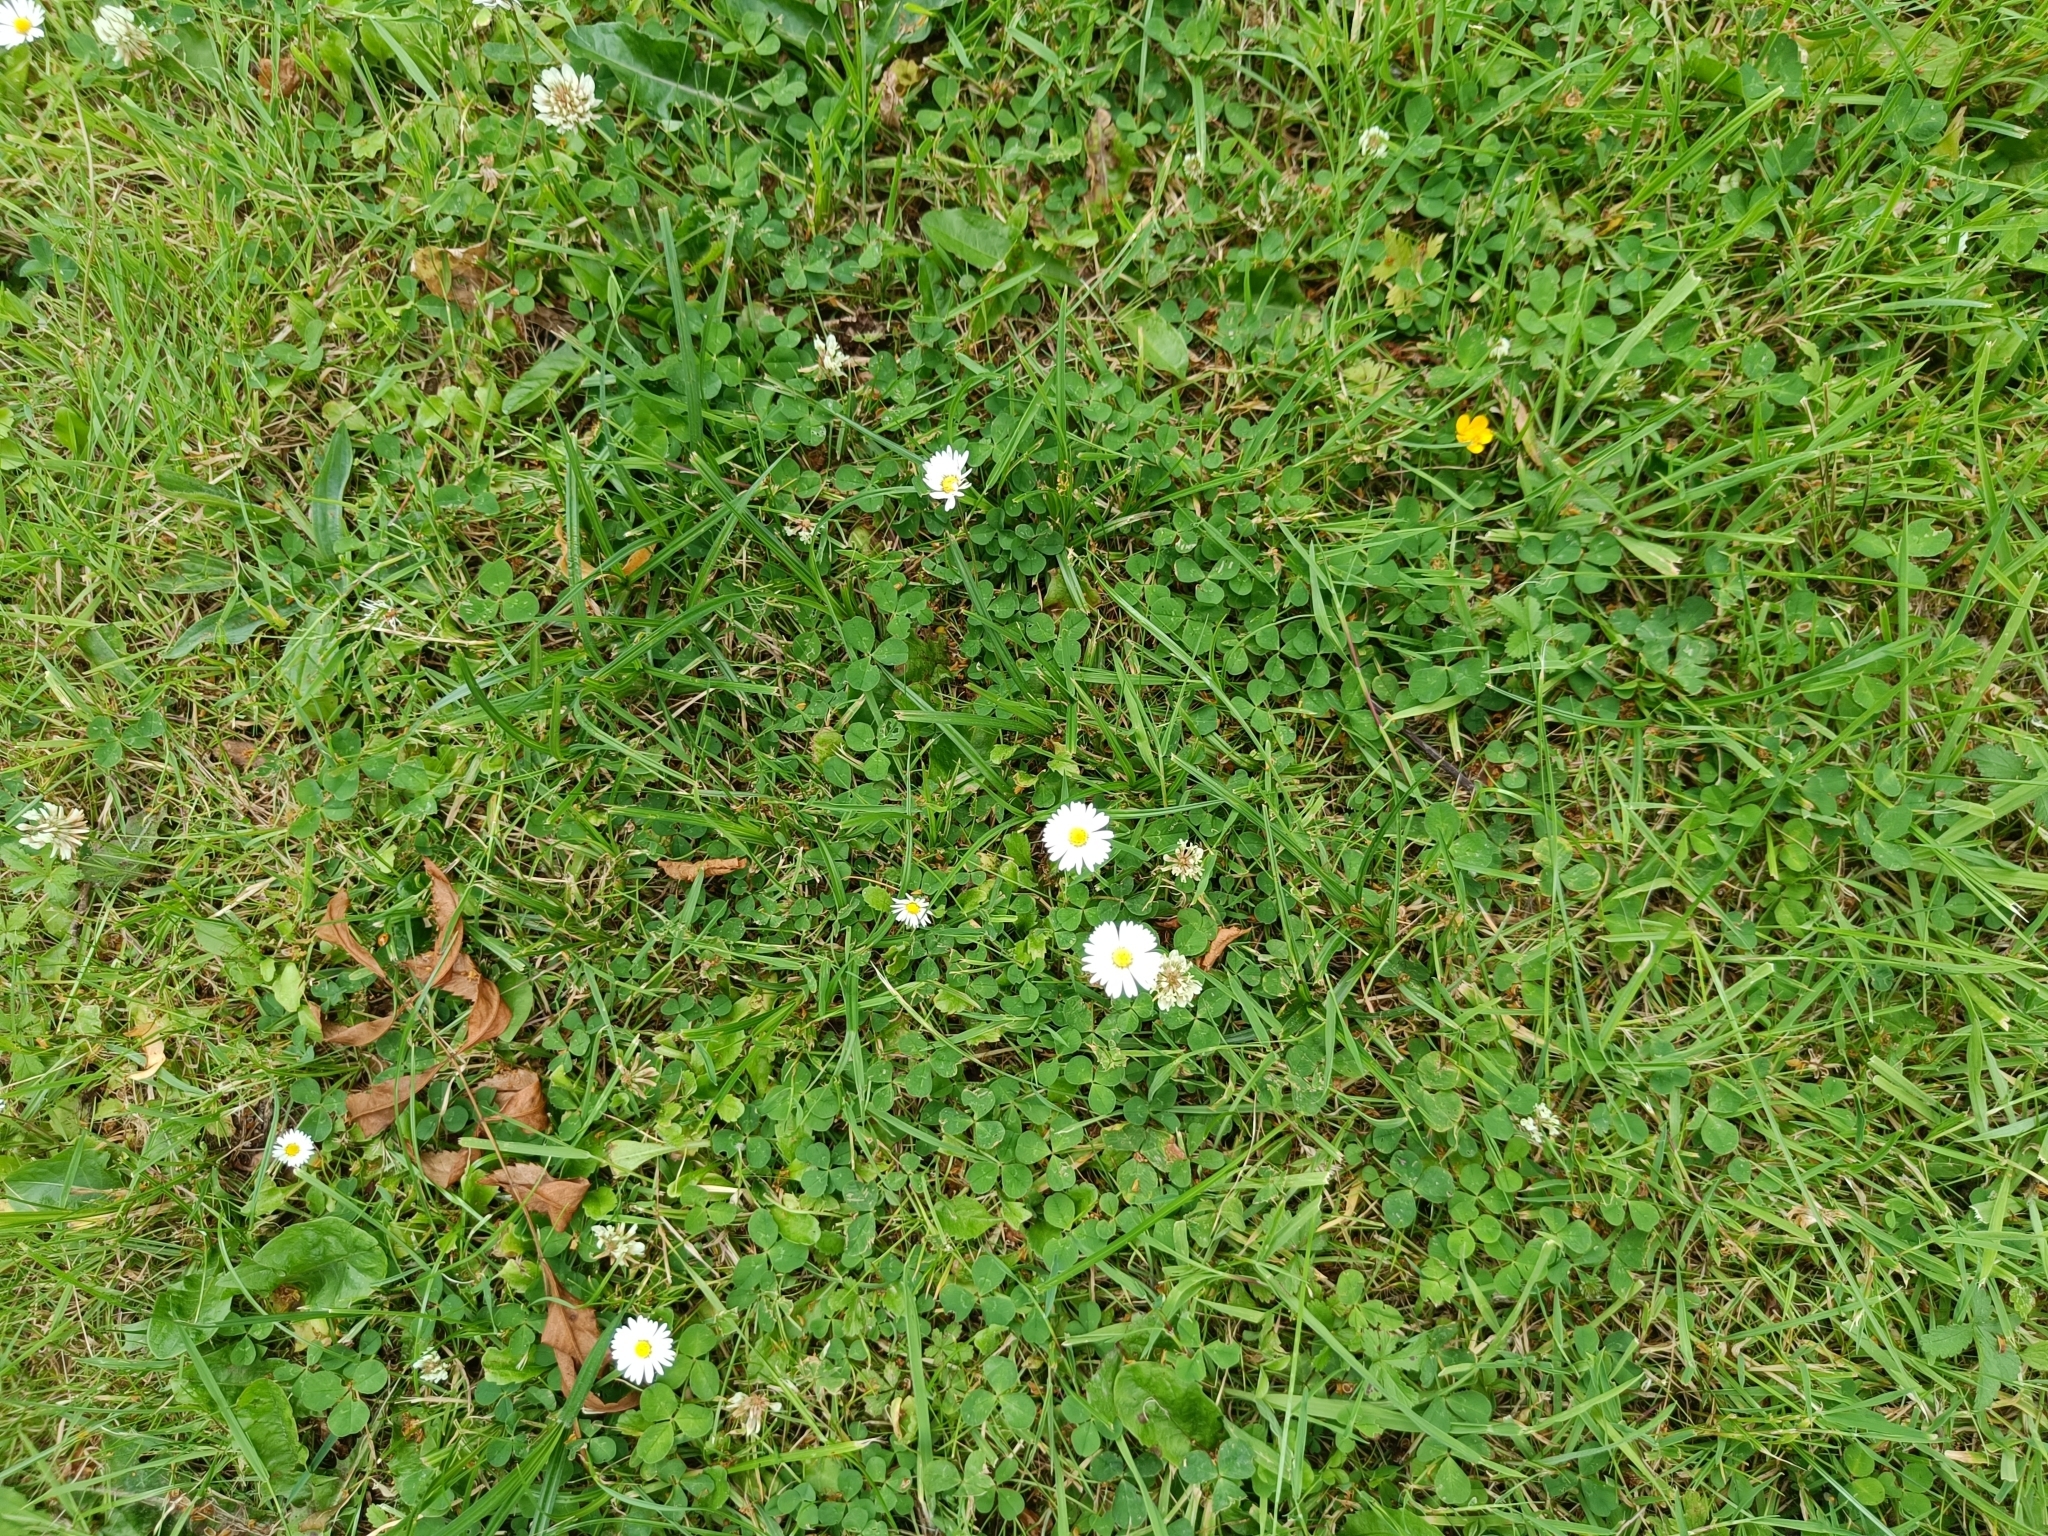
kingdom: Plantae
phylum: Tracheophyta
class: Magnoliopsida
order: Asterales
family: Asteraceae
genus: Bellis
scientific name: Bellis perennis
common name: Lawndaisy
